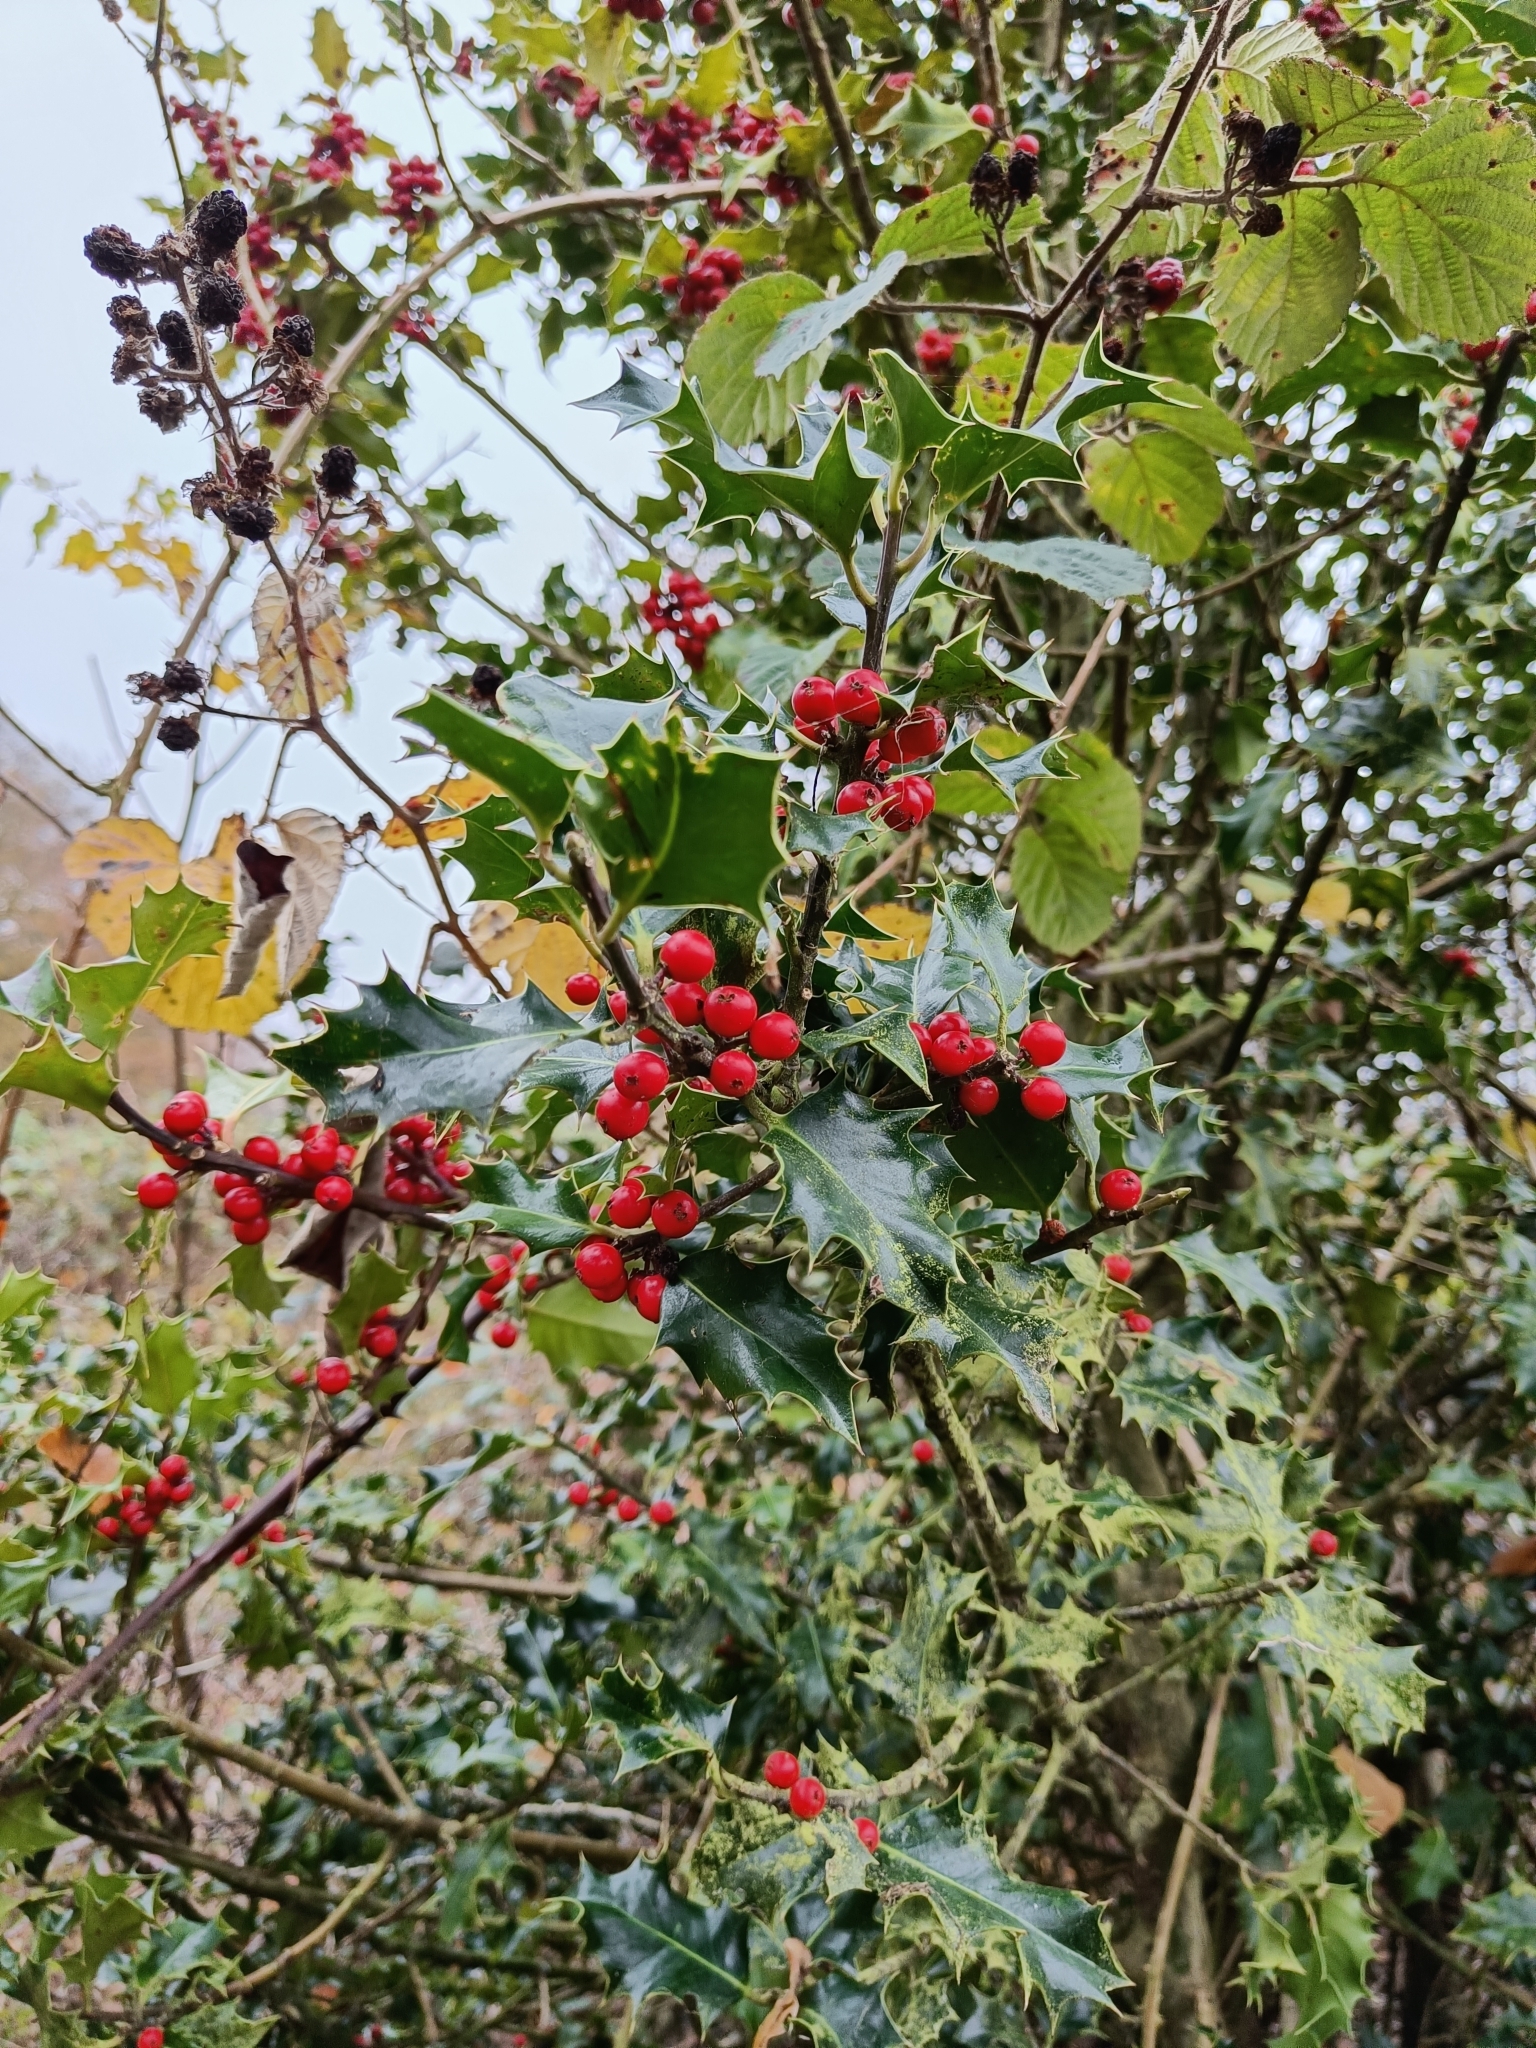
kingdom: Plantae
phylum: Tracheophyta
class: Magnoliopsida
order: Aquifoliales
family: Aquifoliaceae
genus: Ilex
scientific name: Ilex aquifolium
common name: English holly
